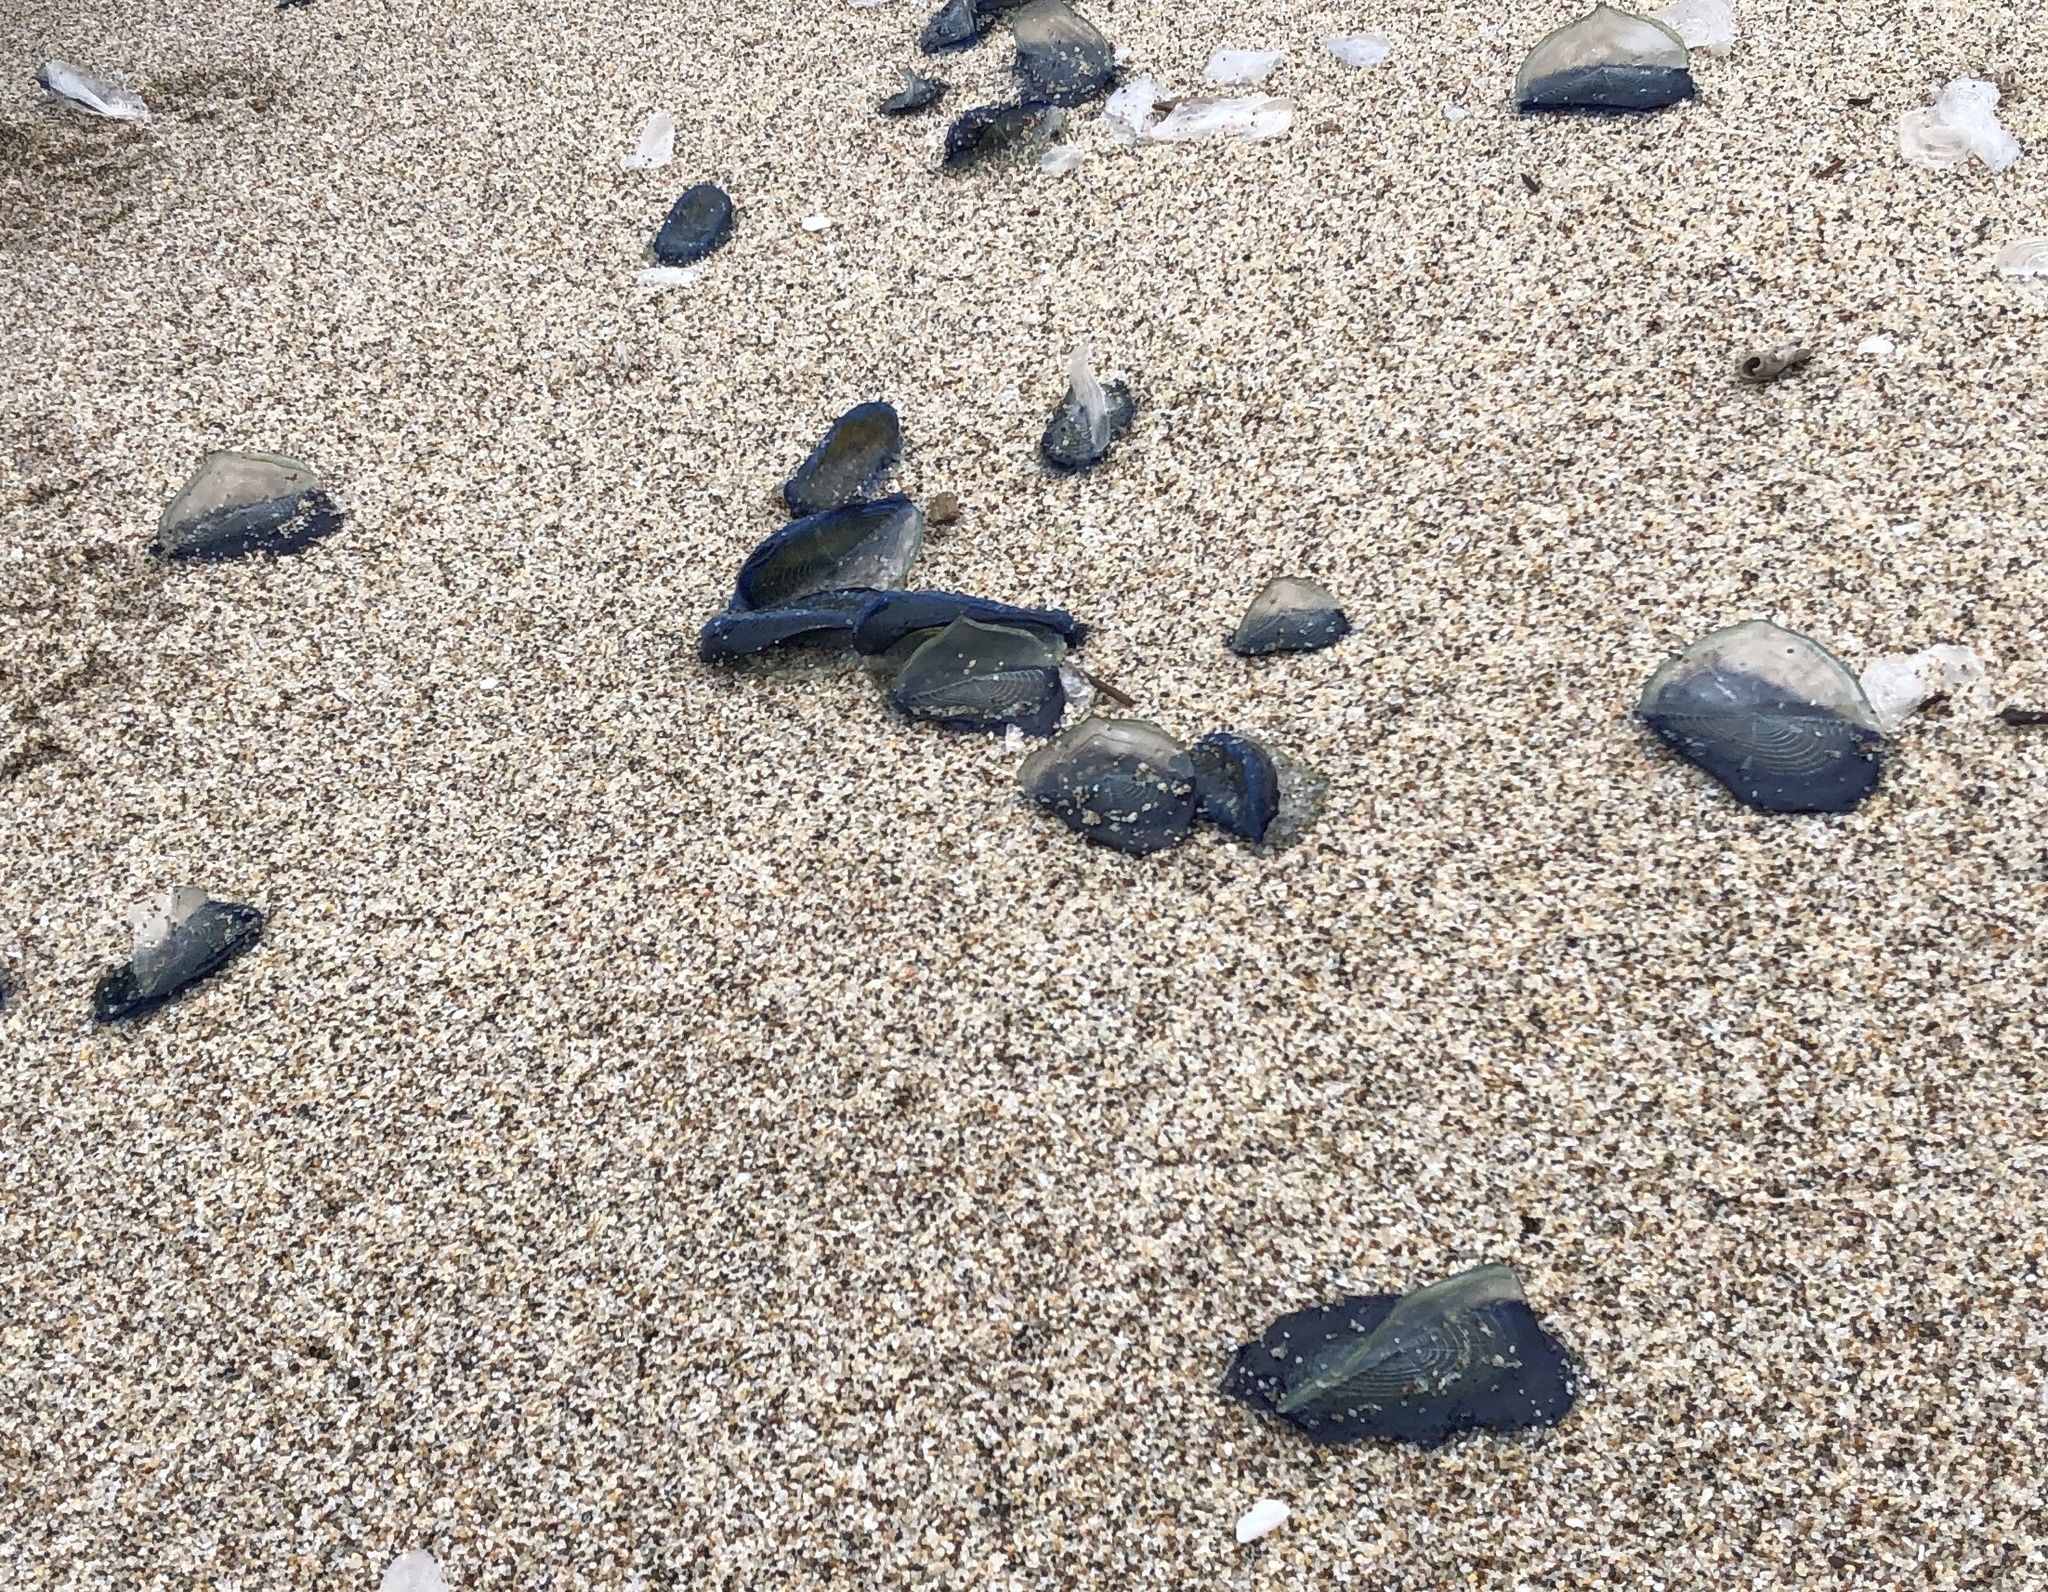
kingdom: Animalia
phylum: Cnidaria
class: Hydrozoa
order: Anthoathecata
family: Porpitidae
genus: Velella
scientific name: Velella velella
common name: By-the-wind-sailor
